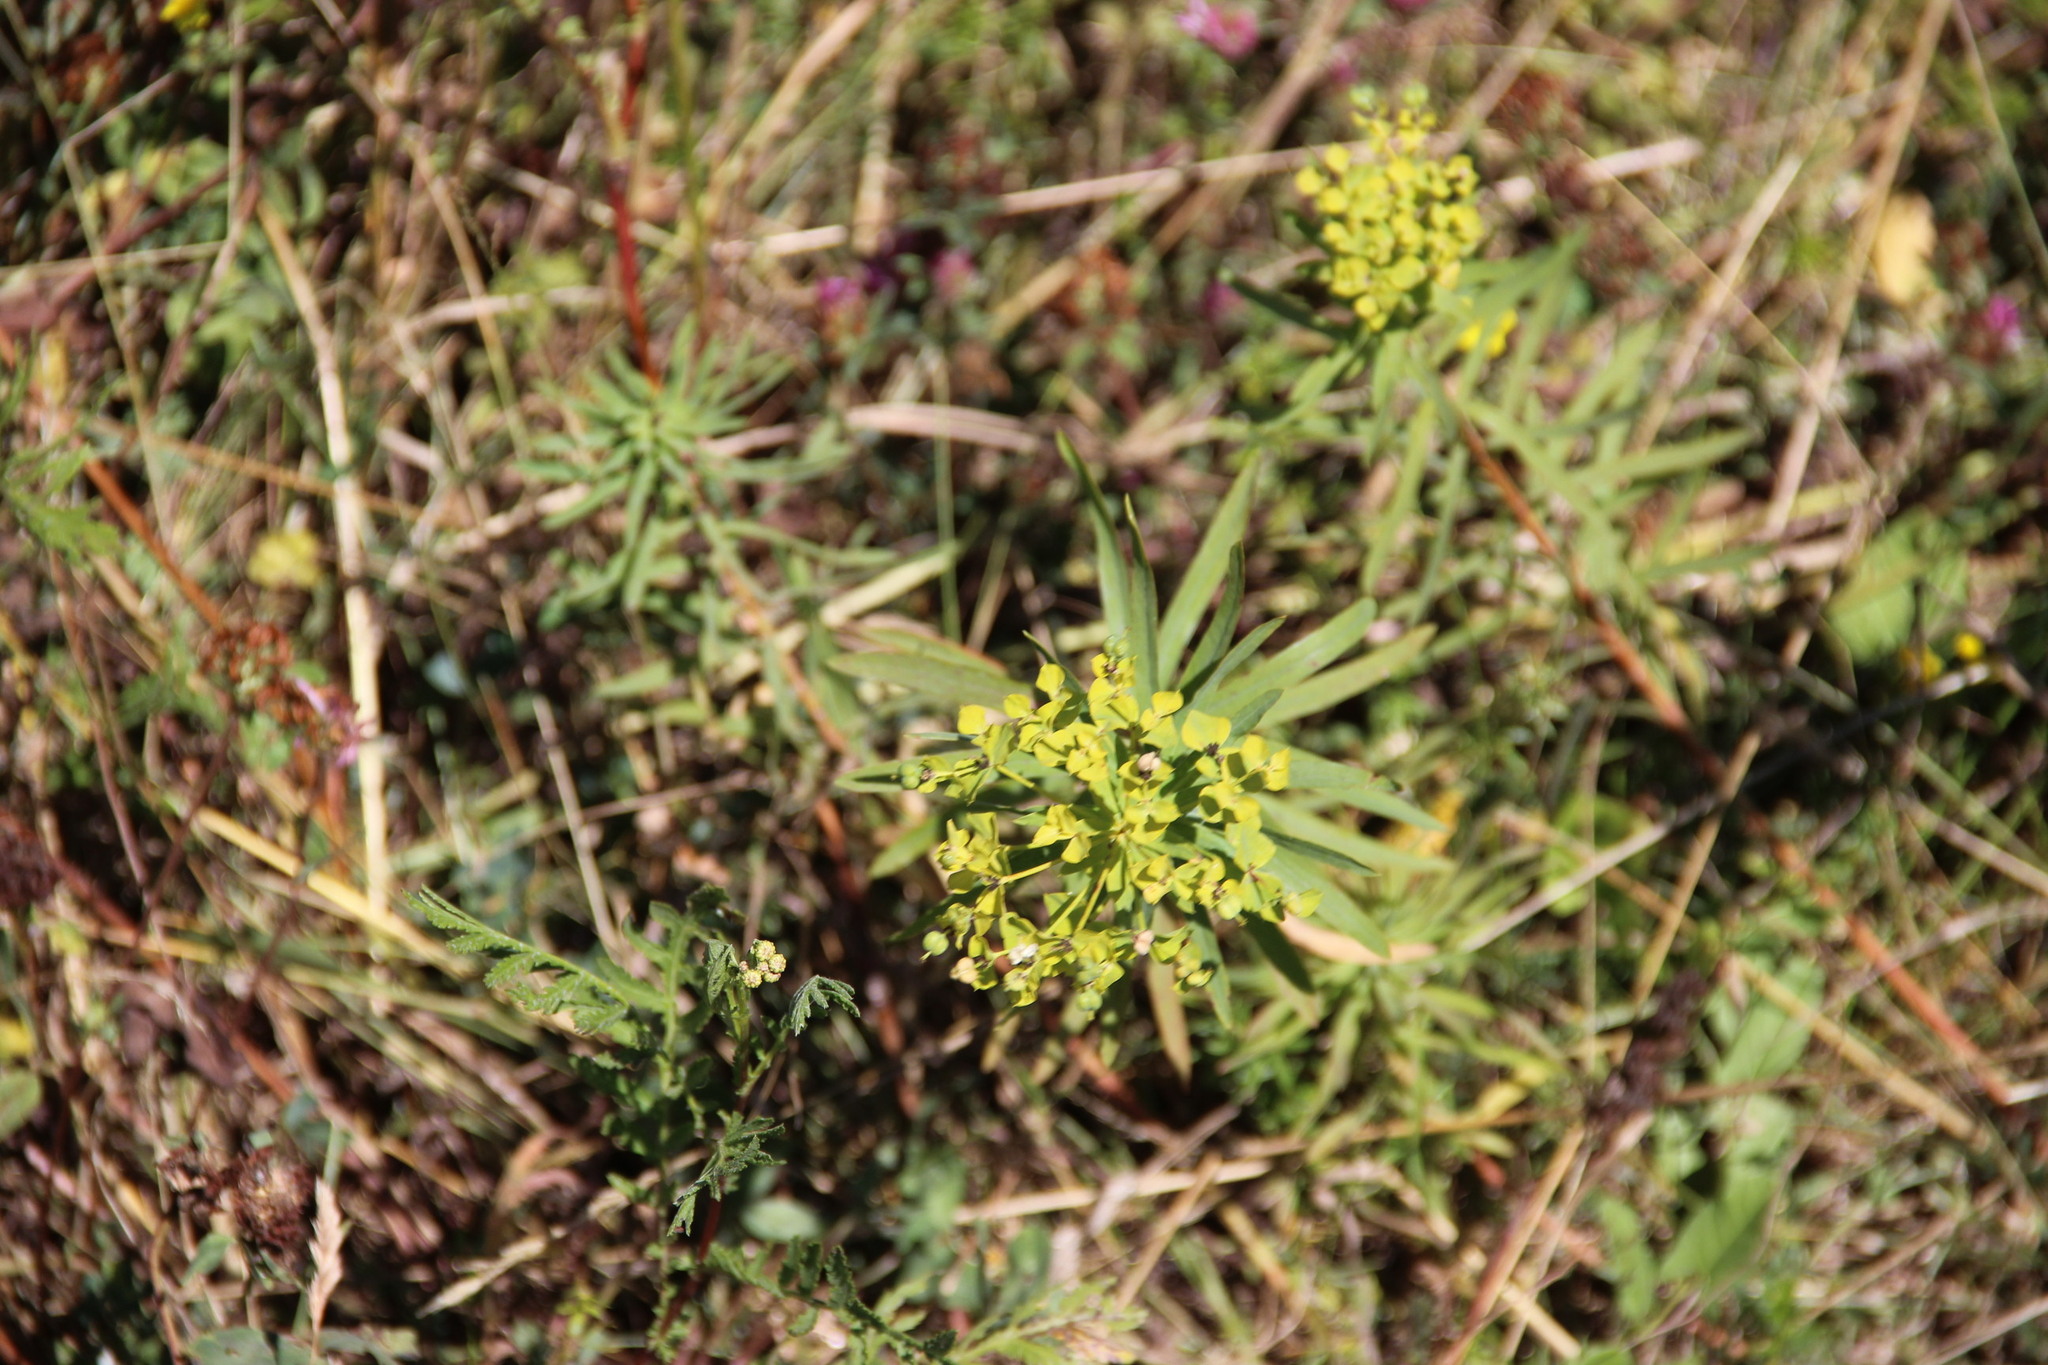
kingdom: Plantae
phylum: Tracheophyta
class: Magnoliopsida
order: Malpighiales
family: Euphorbiaceae
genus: Euphorbia
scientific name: Euphorbia virgata
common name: Leafy spurge
